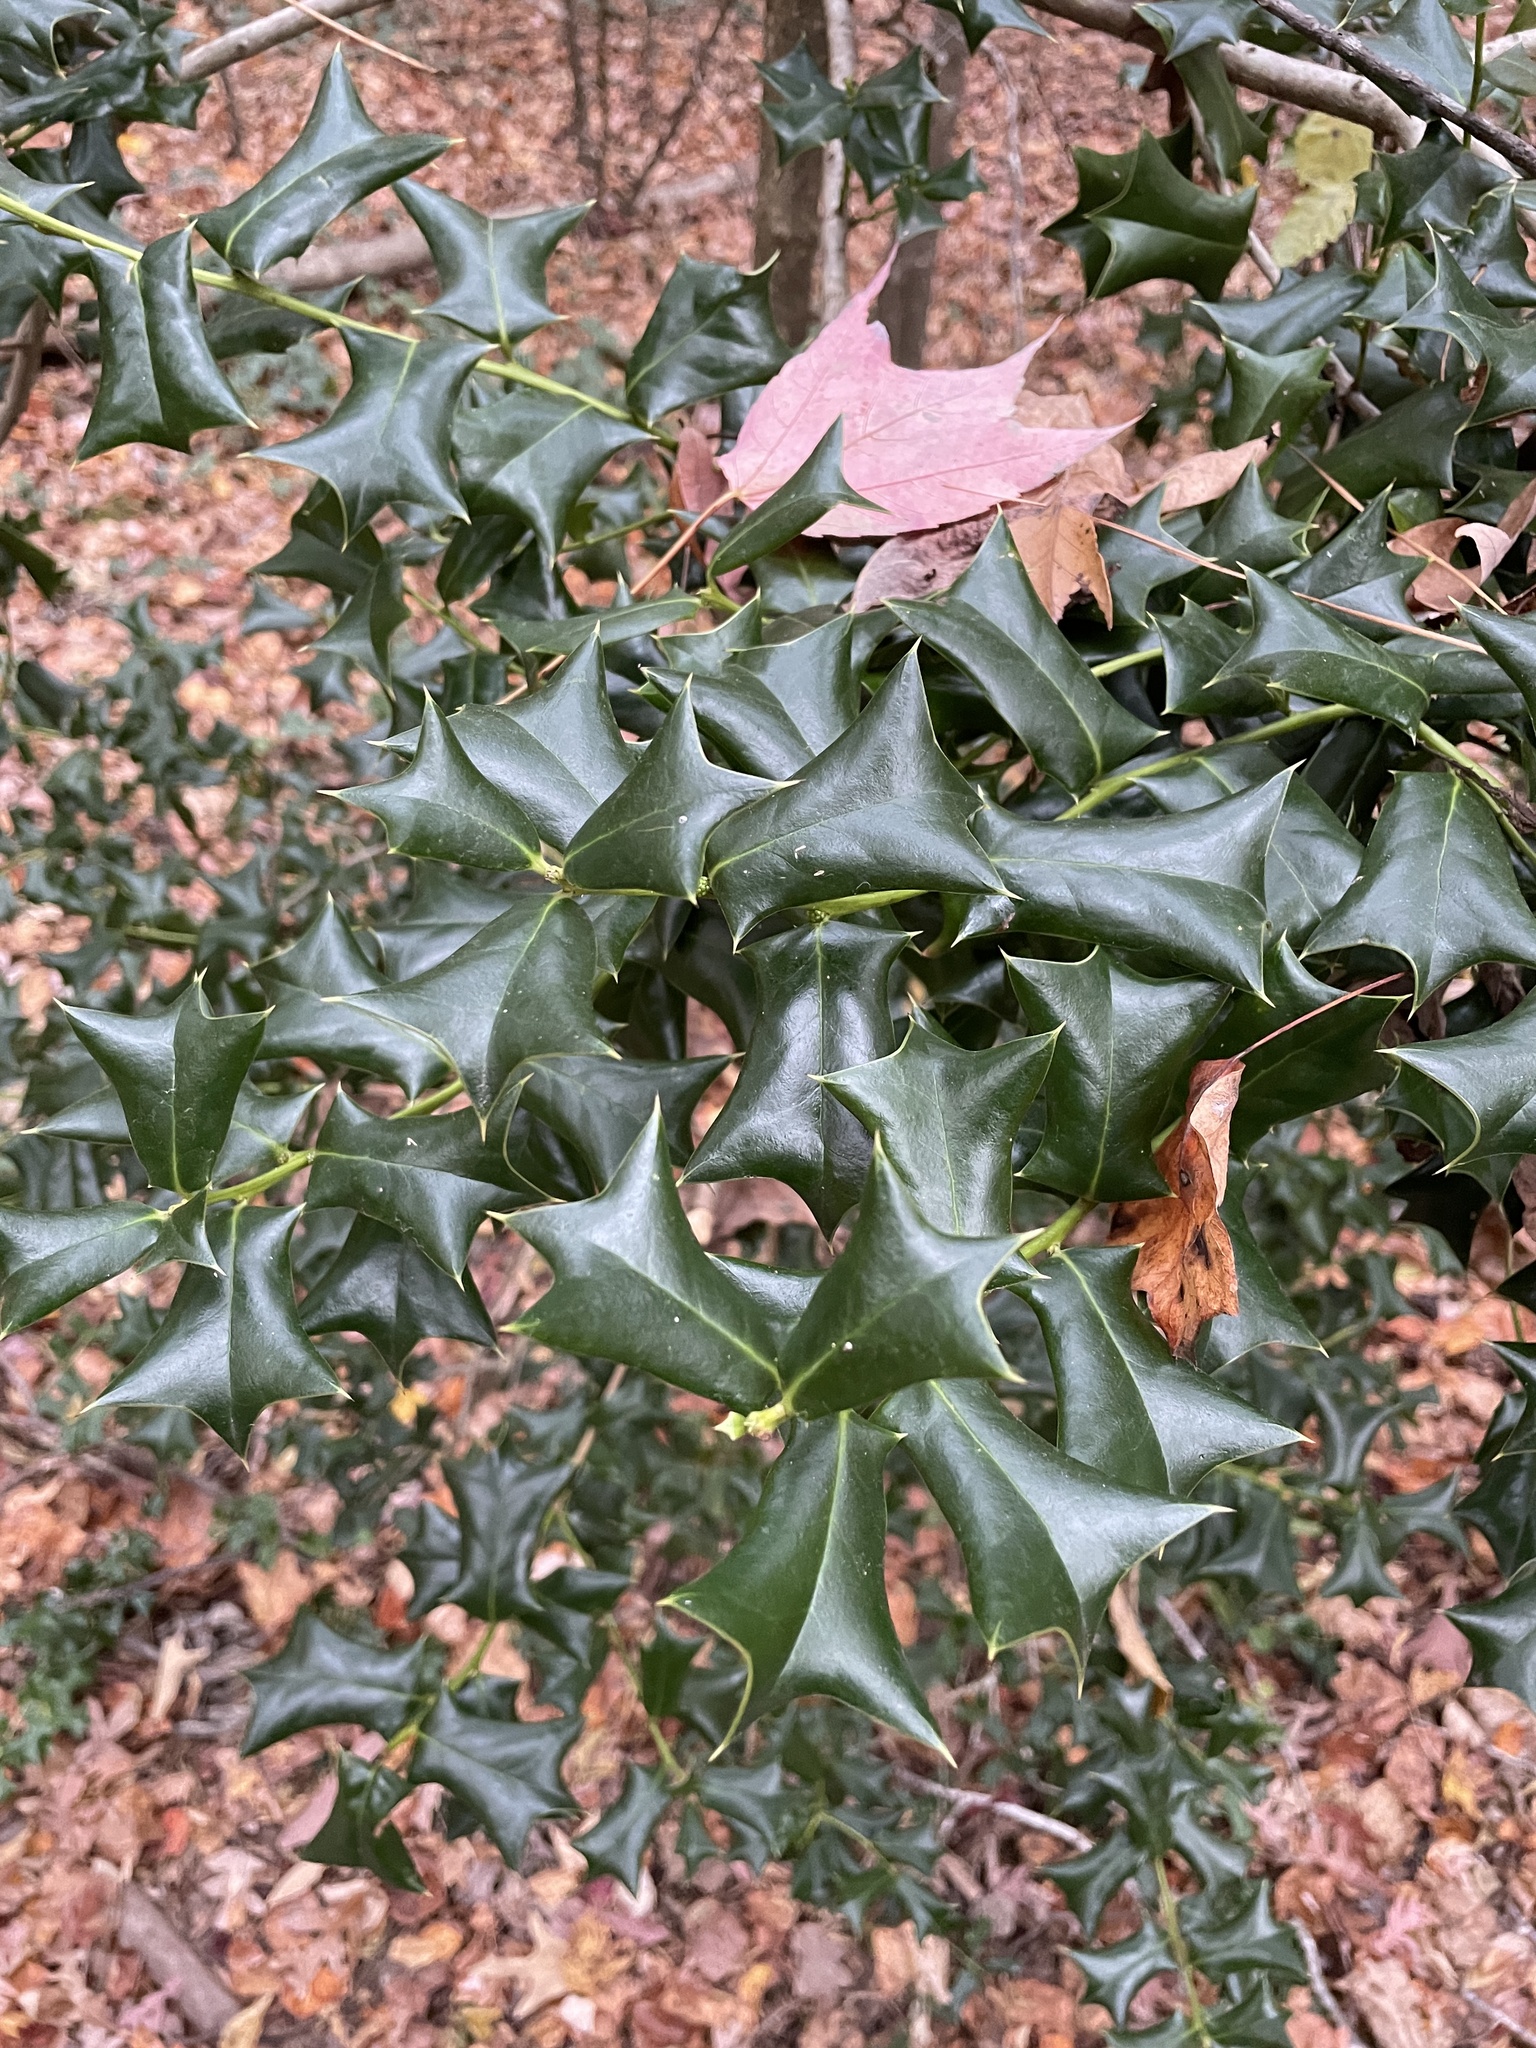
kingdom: Plantae
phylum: Tracheophyta
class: Magnoliopsida
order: Aquifoliales
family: Aquifoliaceae
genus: Ilex
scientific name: Ilex cornuta
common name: Chinese holly
